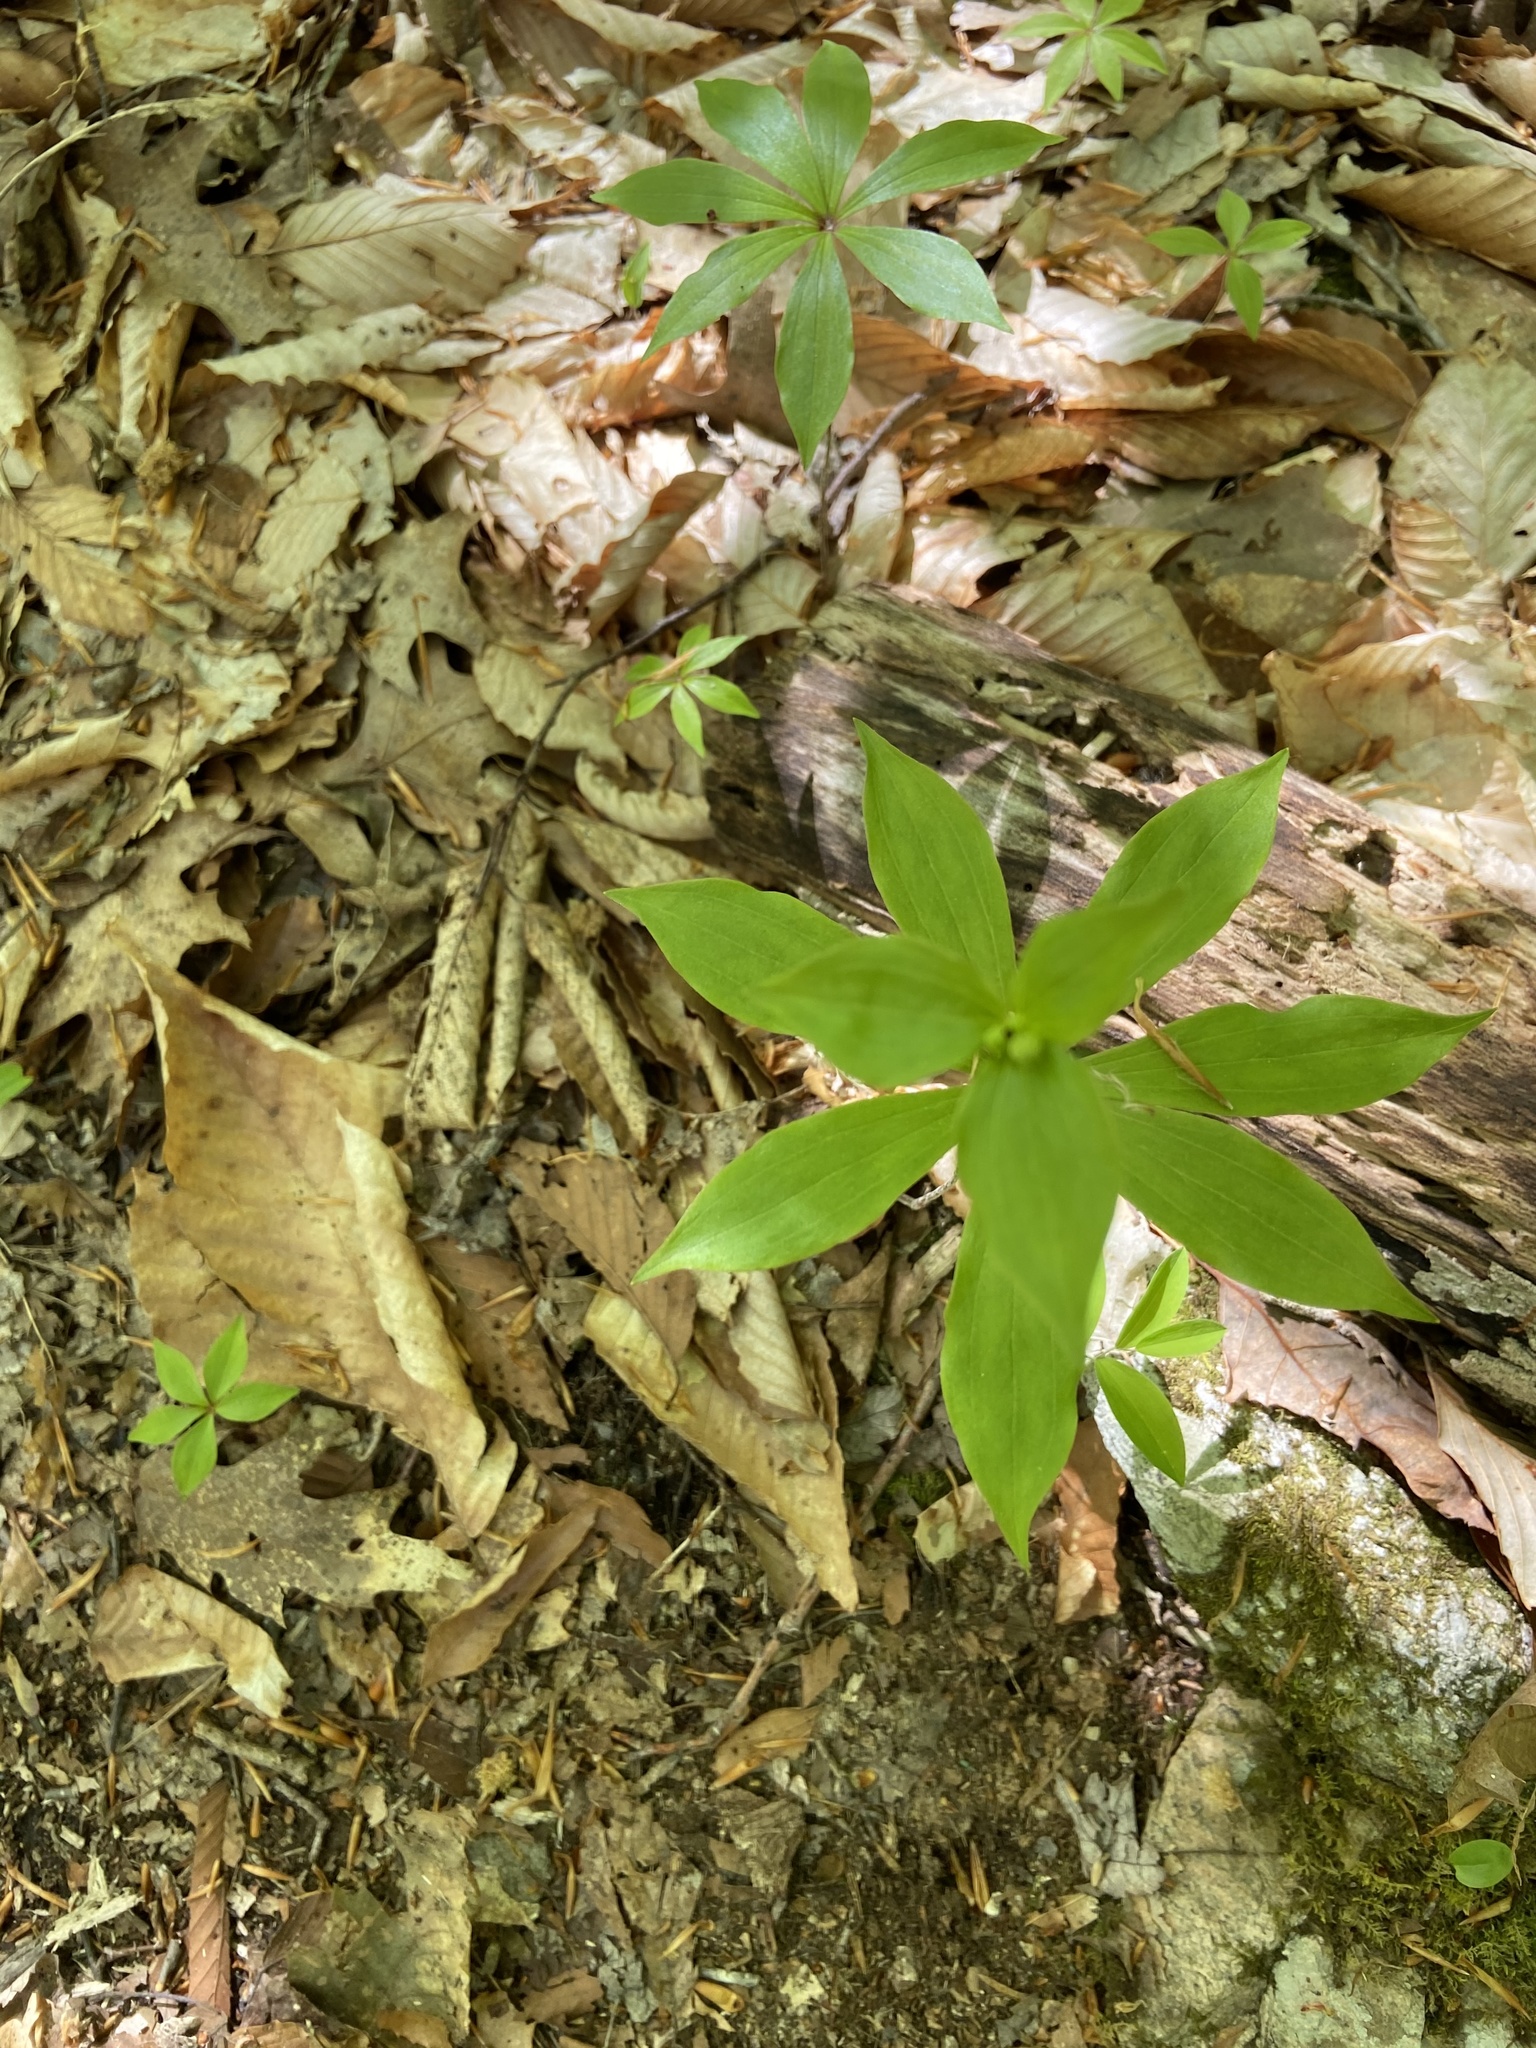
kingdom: Plantae
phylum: Tracheophyta
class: Liliopsida
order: Liliales
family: Liliaceae
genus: Medeola
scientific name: Medeola virginiana
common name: Indian cucumber-root
